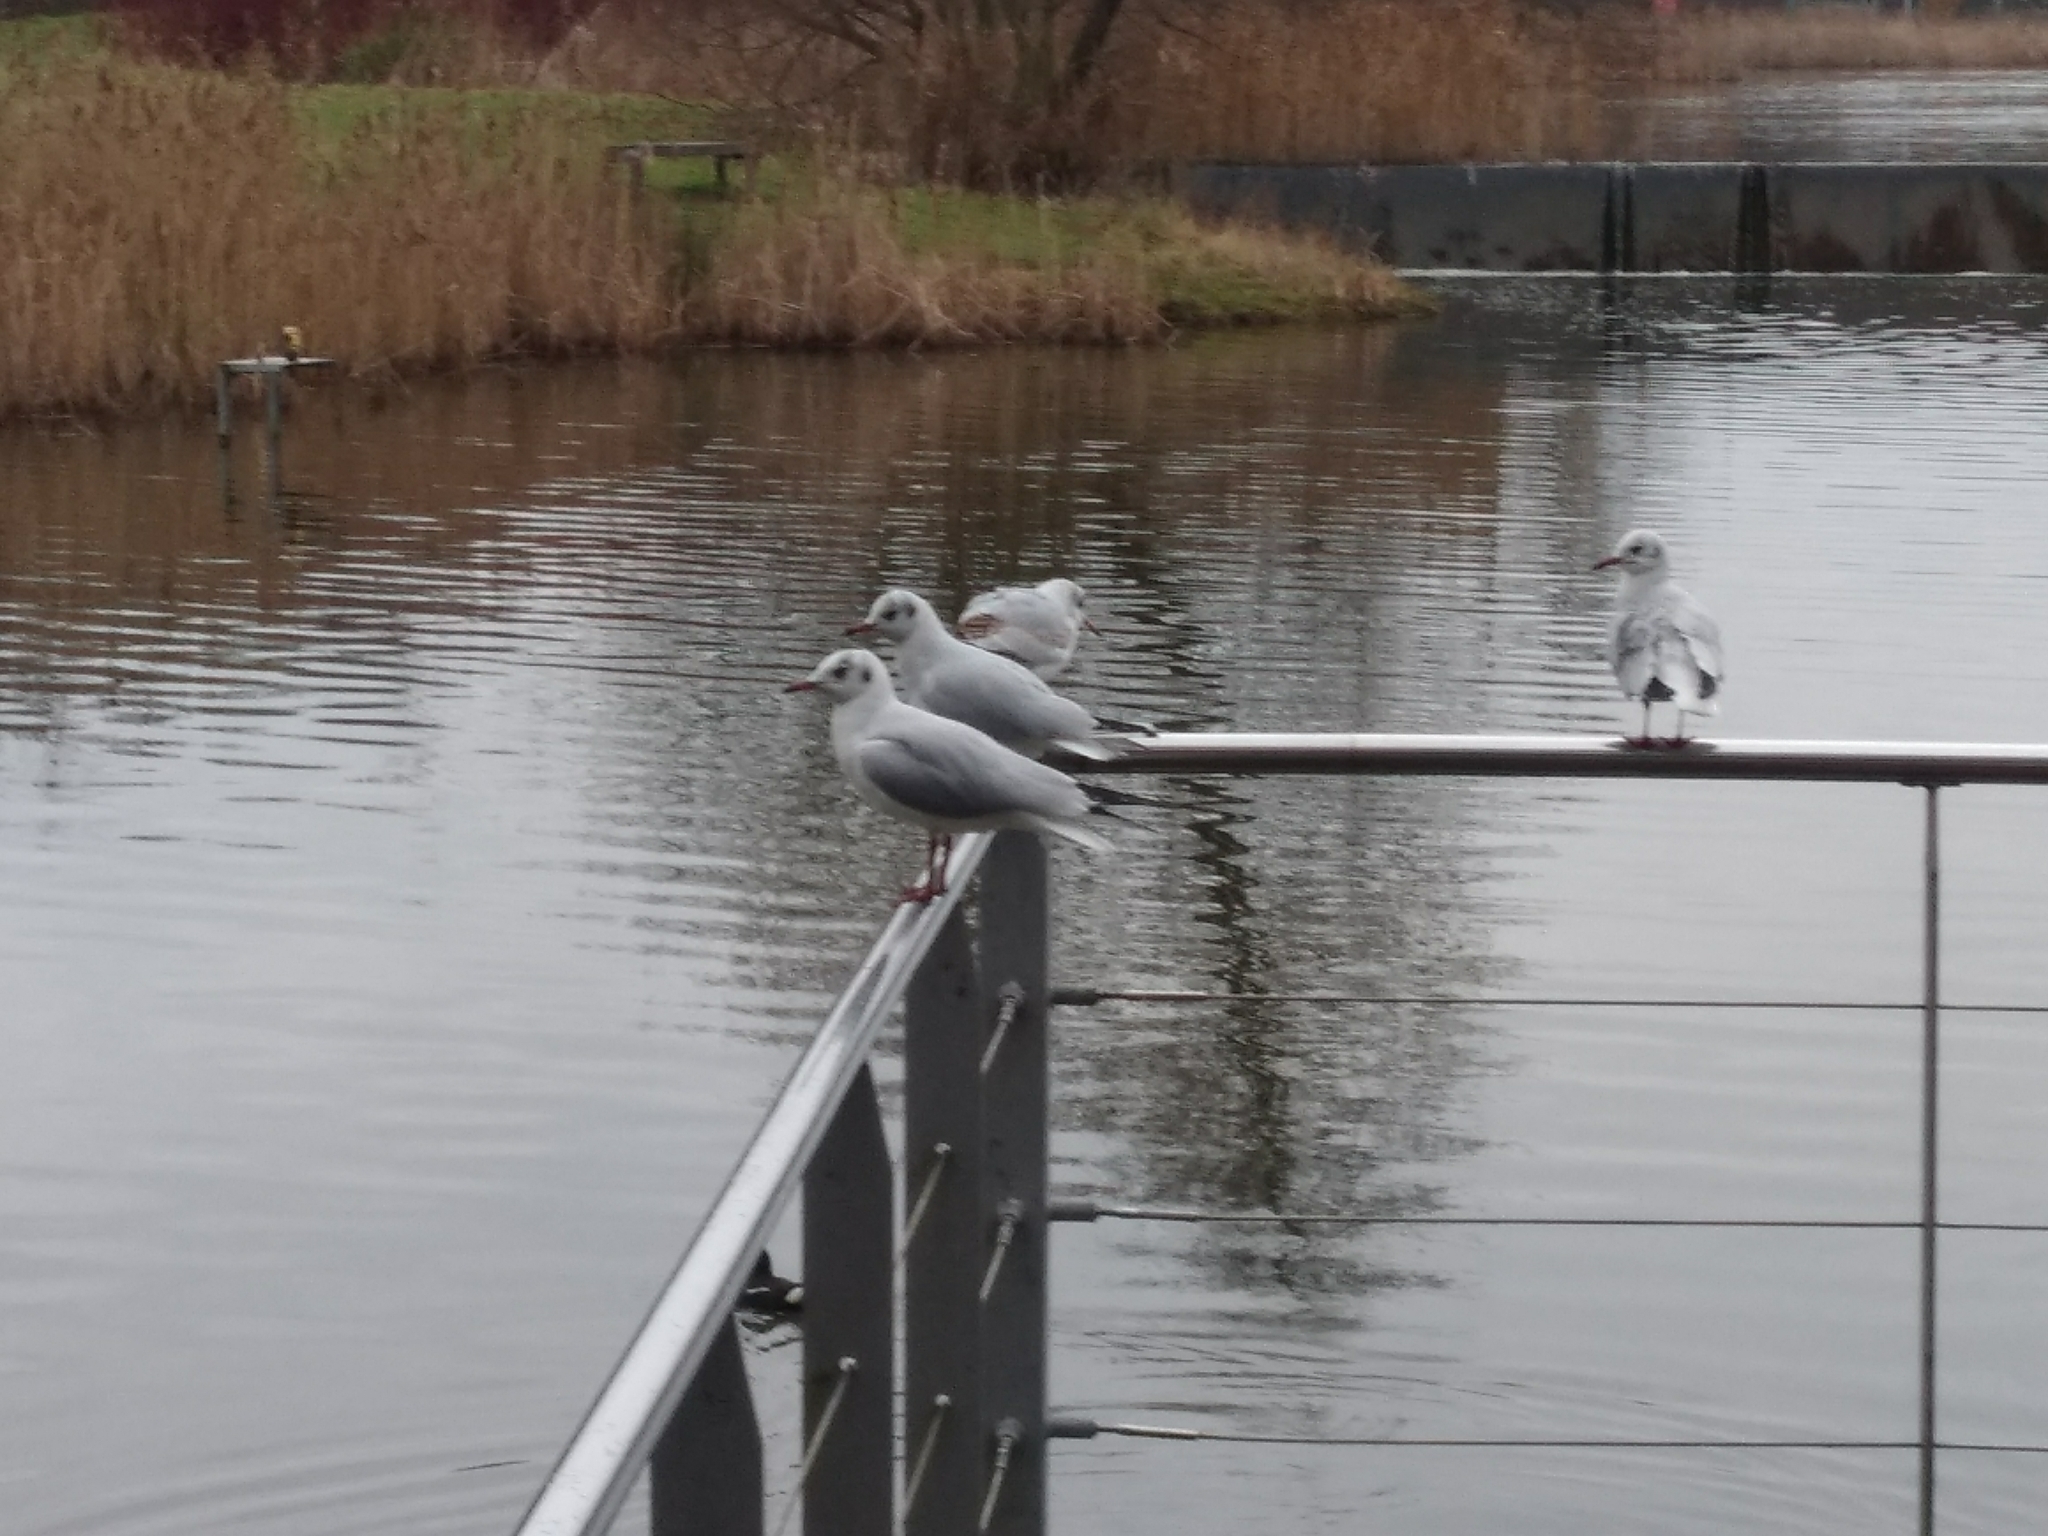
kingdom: Animalia
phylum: Chordata
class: Aves
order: Charadriiformes
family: Laridae
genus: Chroicocephalus
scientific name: Chroicocephalus ridibundus
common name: Black-headed gull
